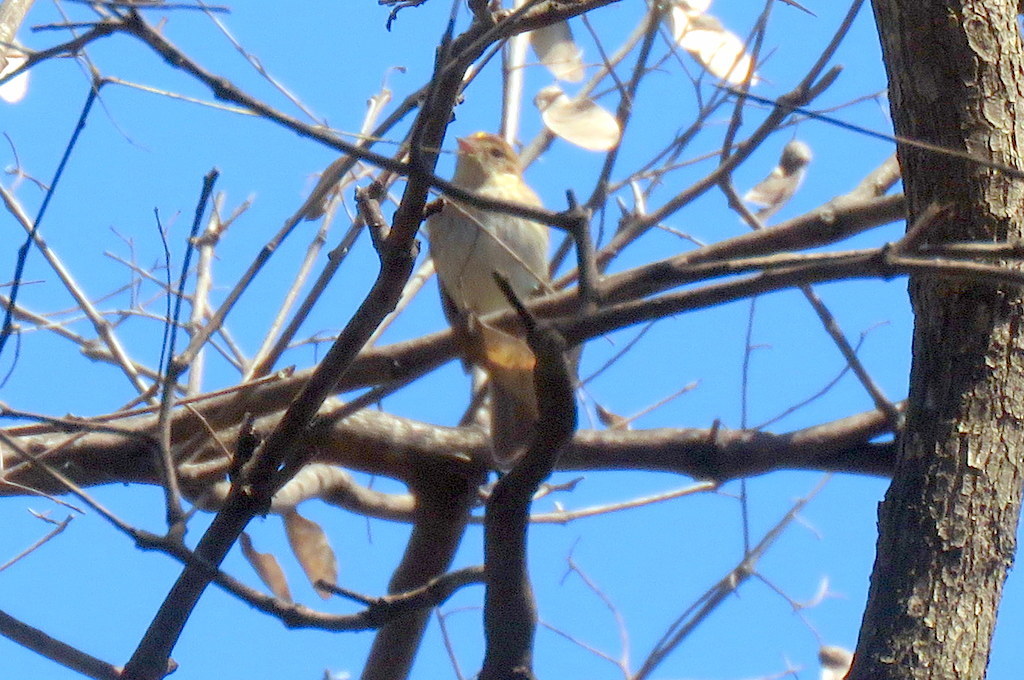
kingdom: Animalia
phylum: Chordata
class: Aves
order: Passeriformes
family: Tyrannidae
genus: Myiophobus
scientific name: Myiophobus fasciatus
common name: Bran-colored flycatcher
